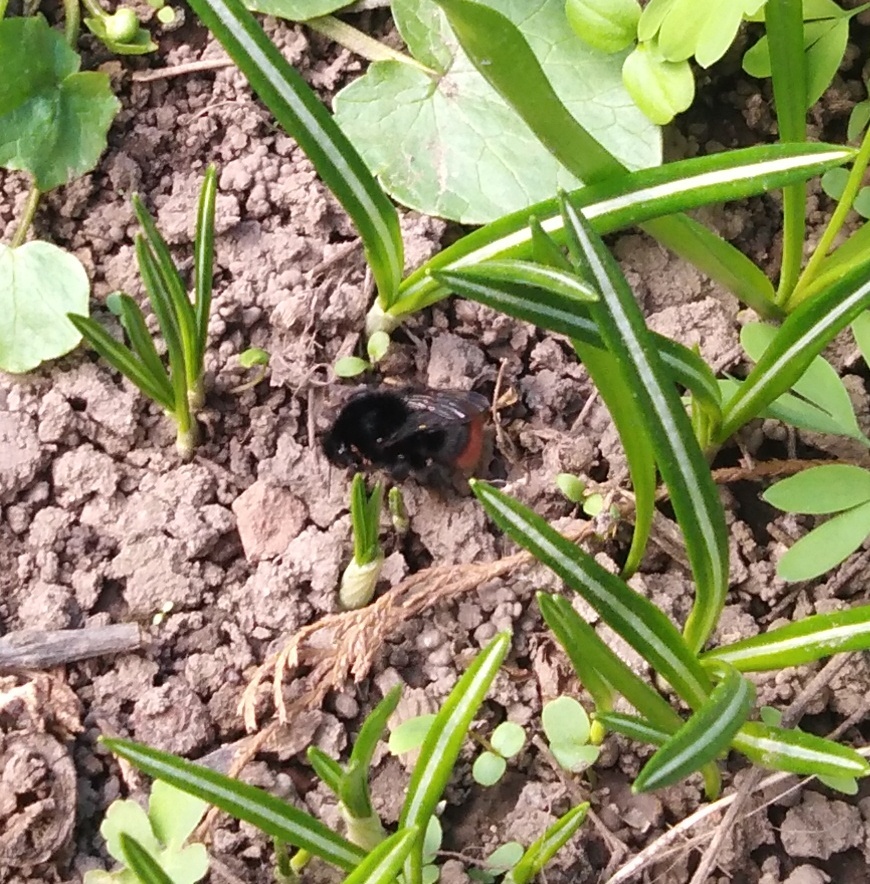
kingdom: Animalia
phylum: Arthropoda
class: Insecta
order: Hymenoptera
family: Apidae
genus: Bombus
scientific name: Bombus lapidarius
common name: Large red-tailed humble-bee
